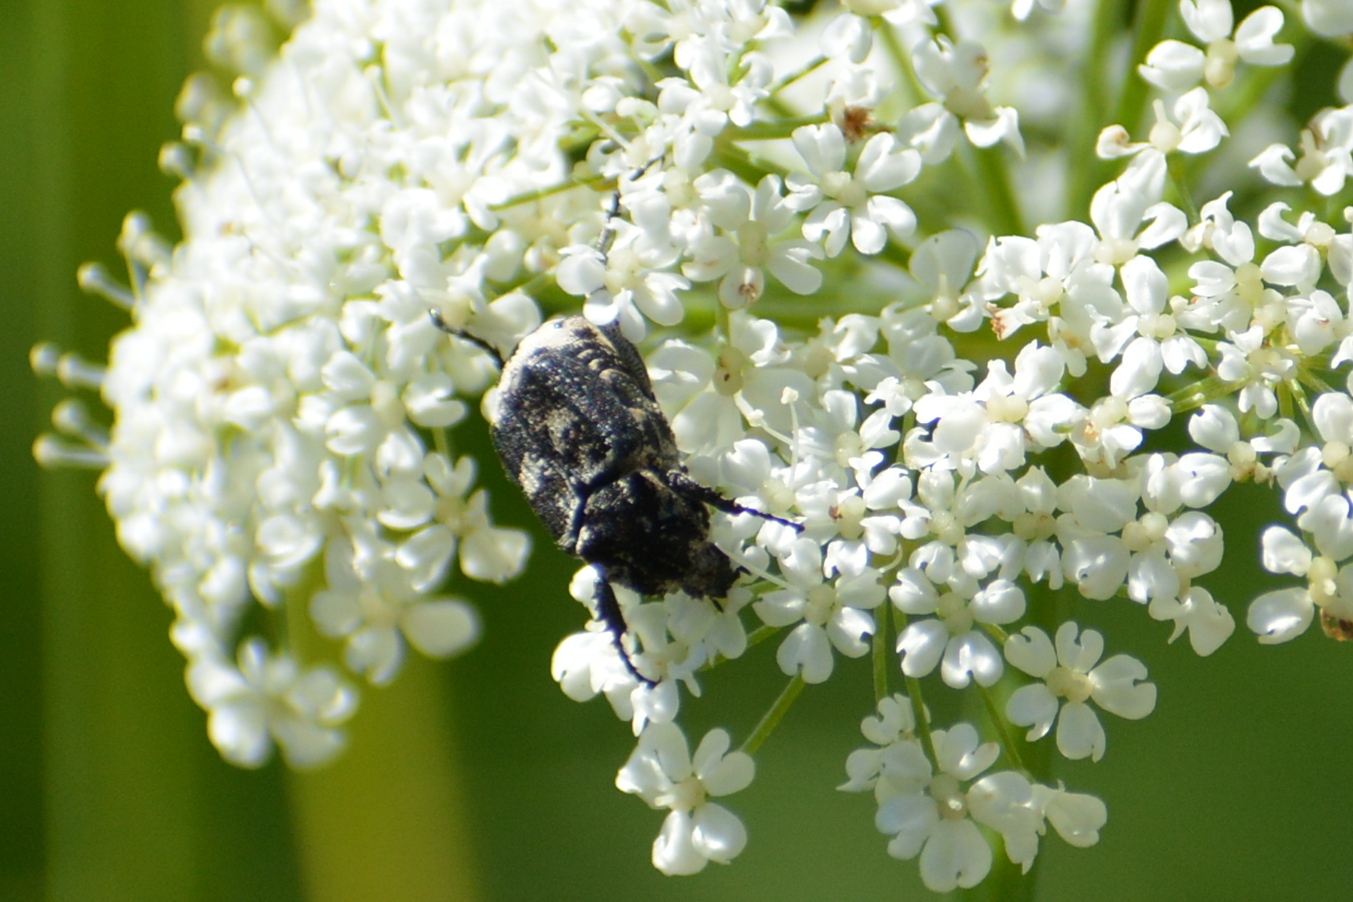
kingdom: Animalia
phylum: Arthropoda
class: Insecta
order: Coleoptera
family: Scarabaeidae
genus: Valgus
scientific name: Valgus hemipterus
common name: Bug flower chafer
